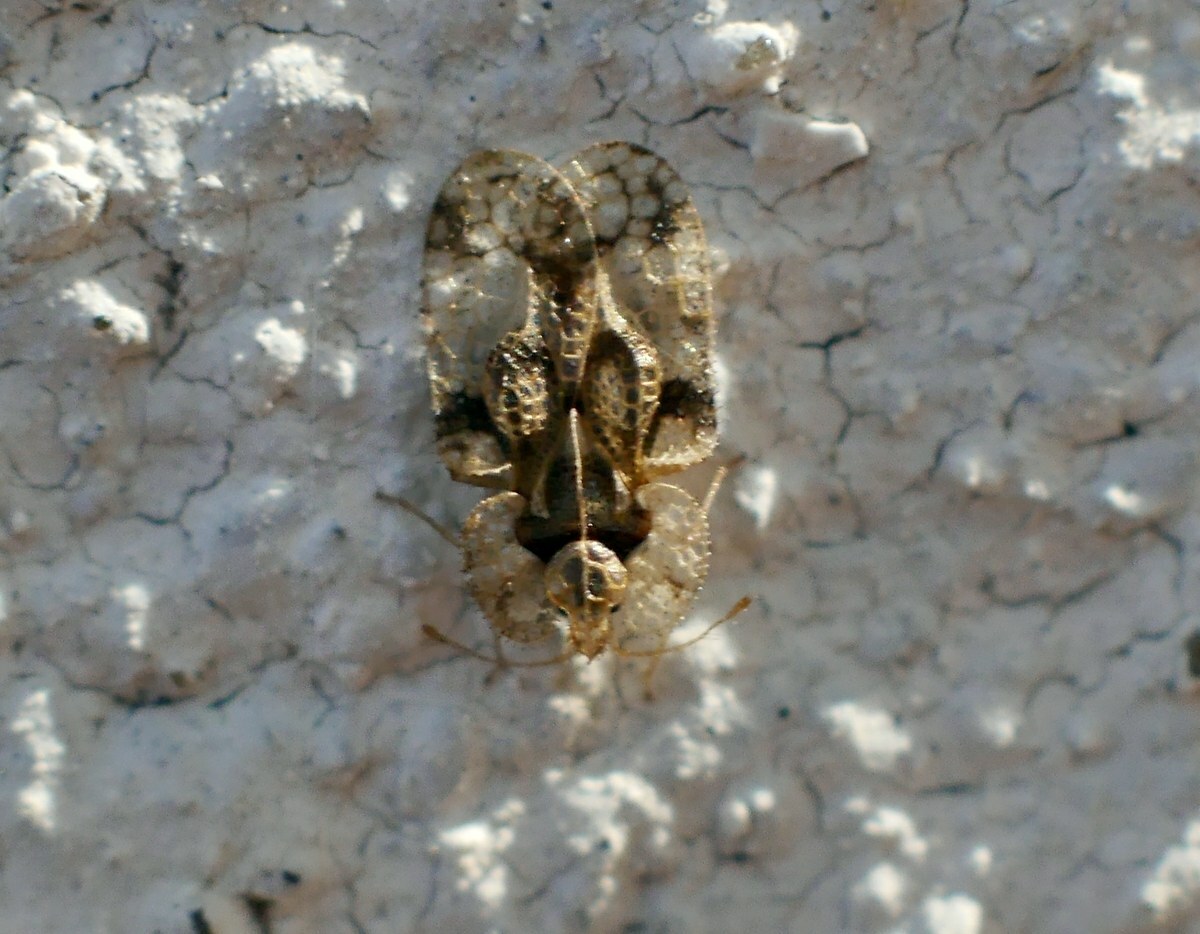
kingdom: Animalia
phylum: Arthropoda
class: Insecta
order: Hemiptera
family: Tingidae
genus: Corythucha
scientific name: Corythucha arcuata
